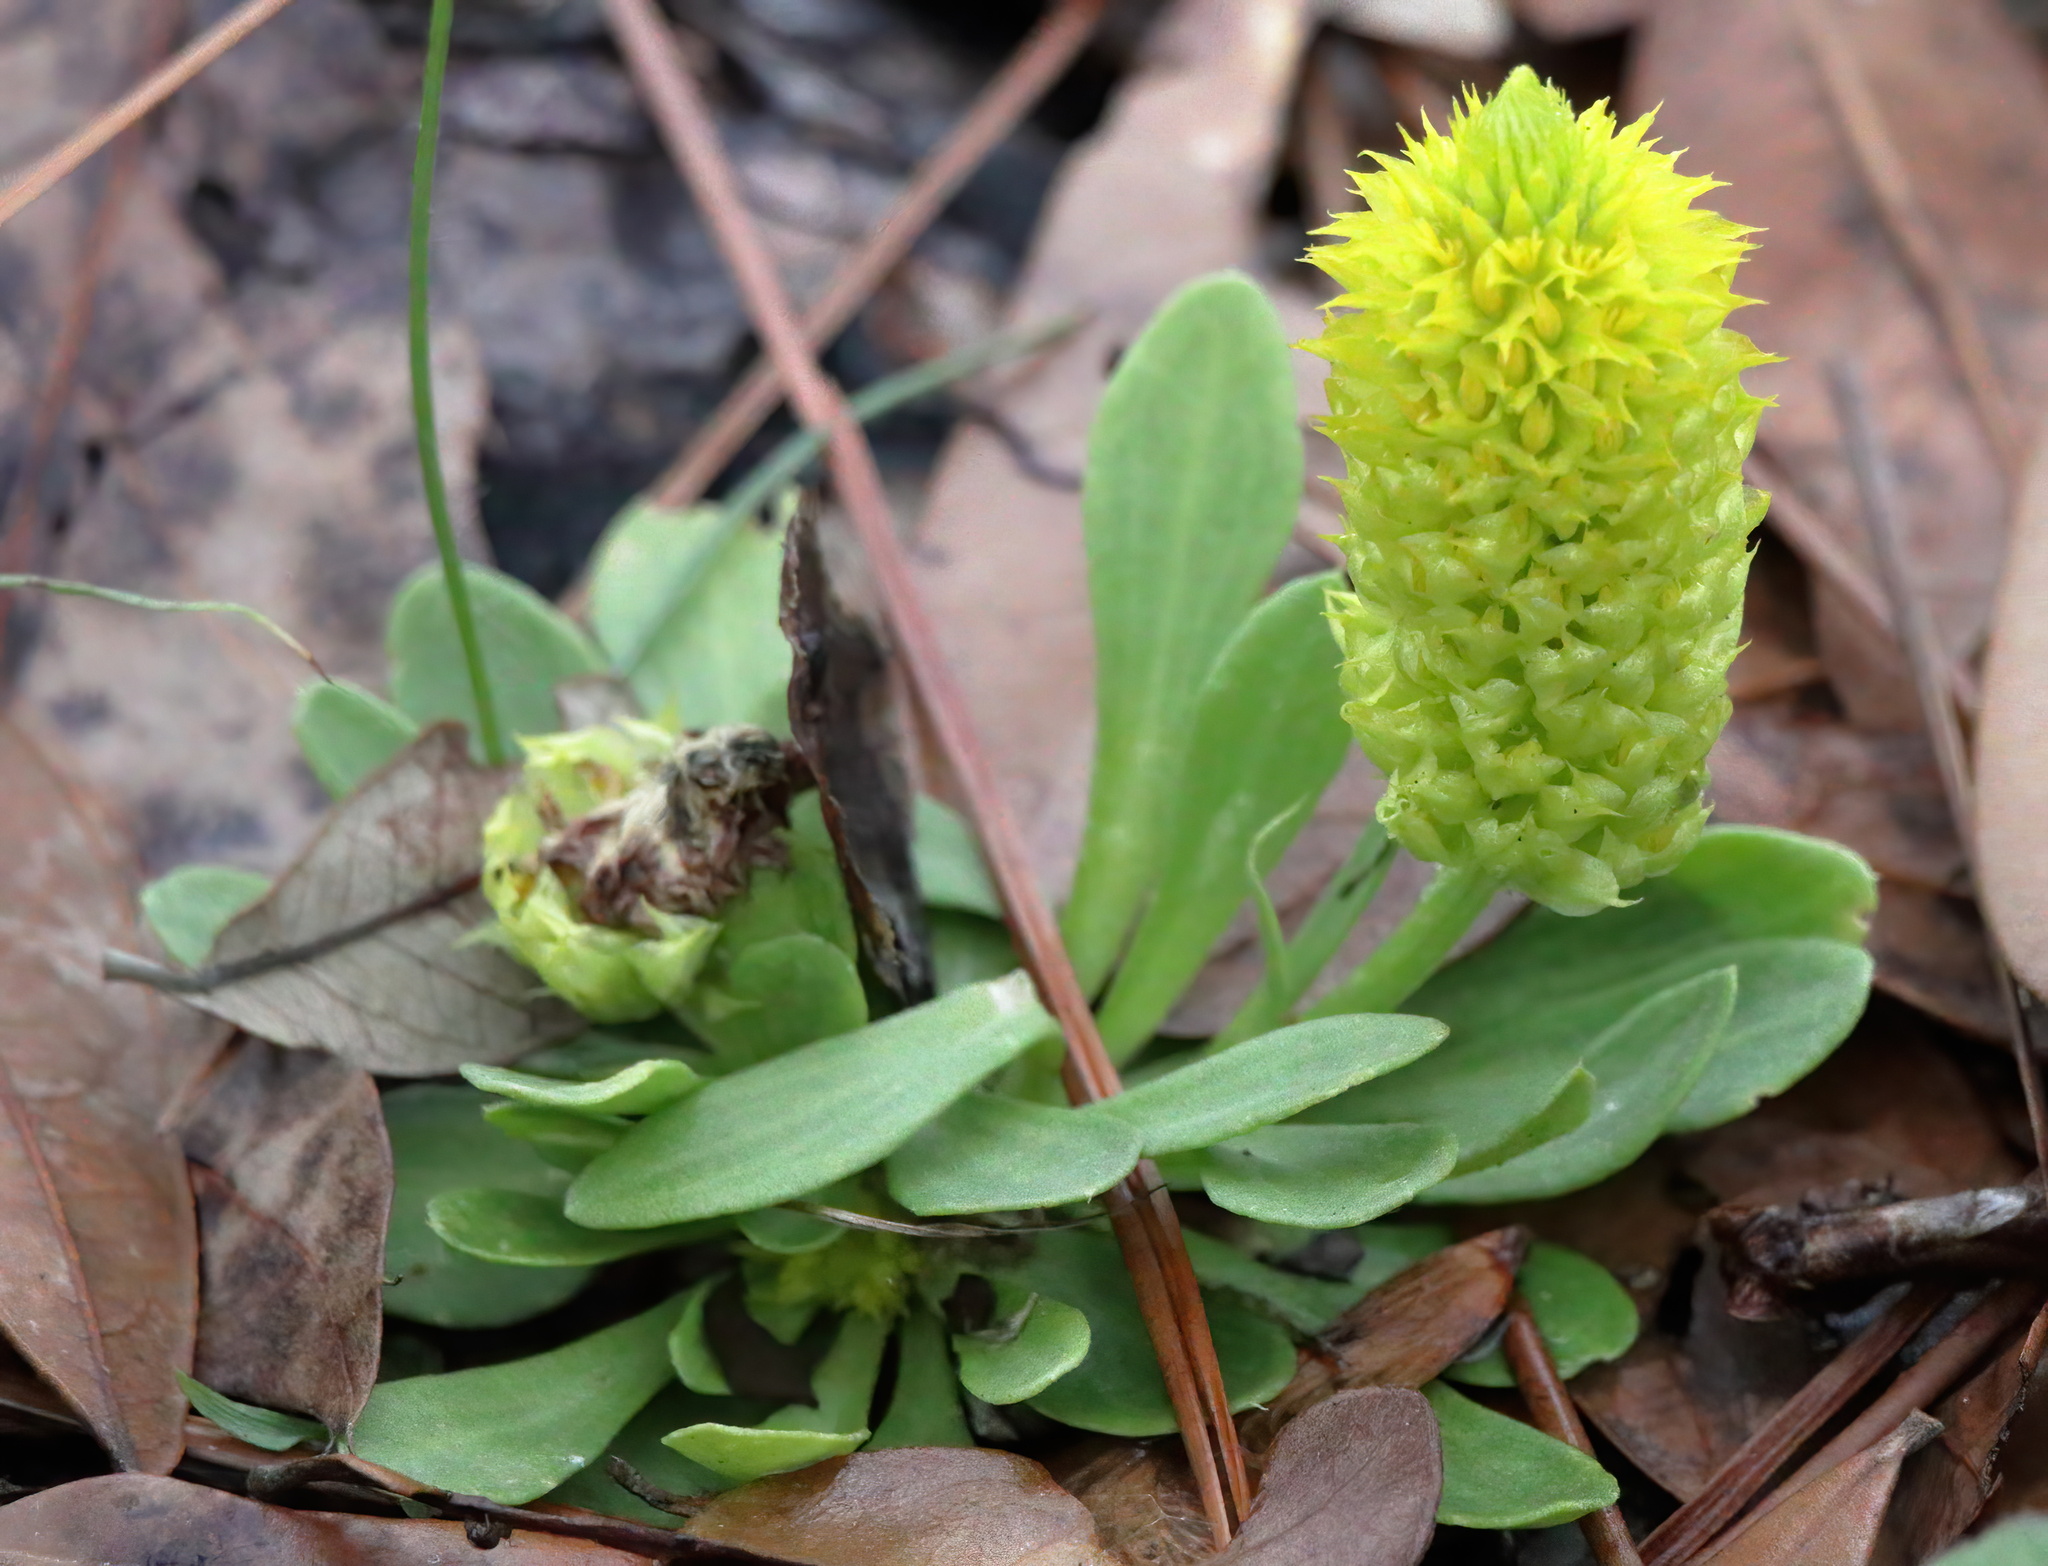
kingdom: Plantae
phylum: Tracheophyta
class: Magnoliopsida
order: Fabales
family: Polygalaceae
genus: Polygala
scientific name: Polygala nana
